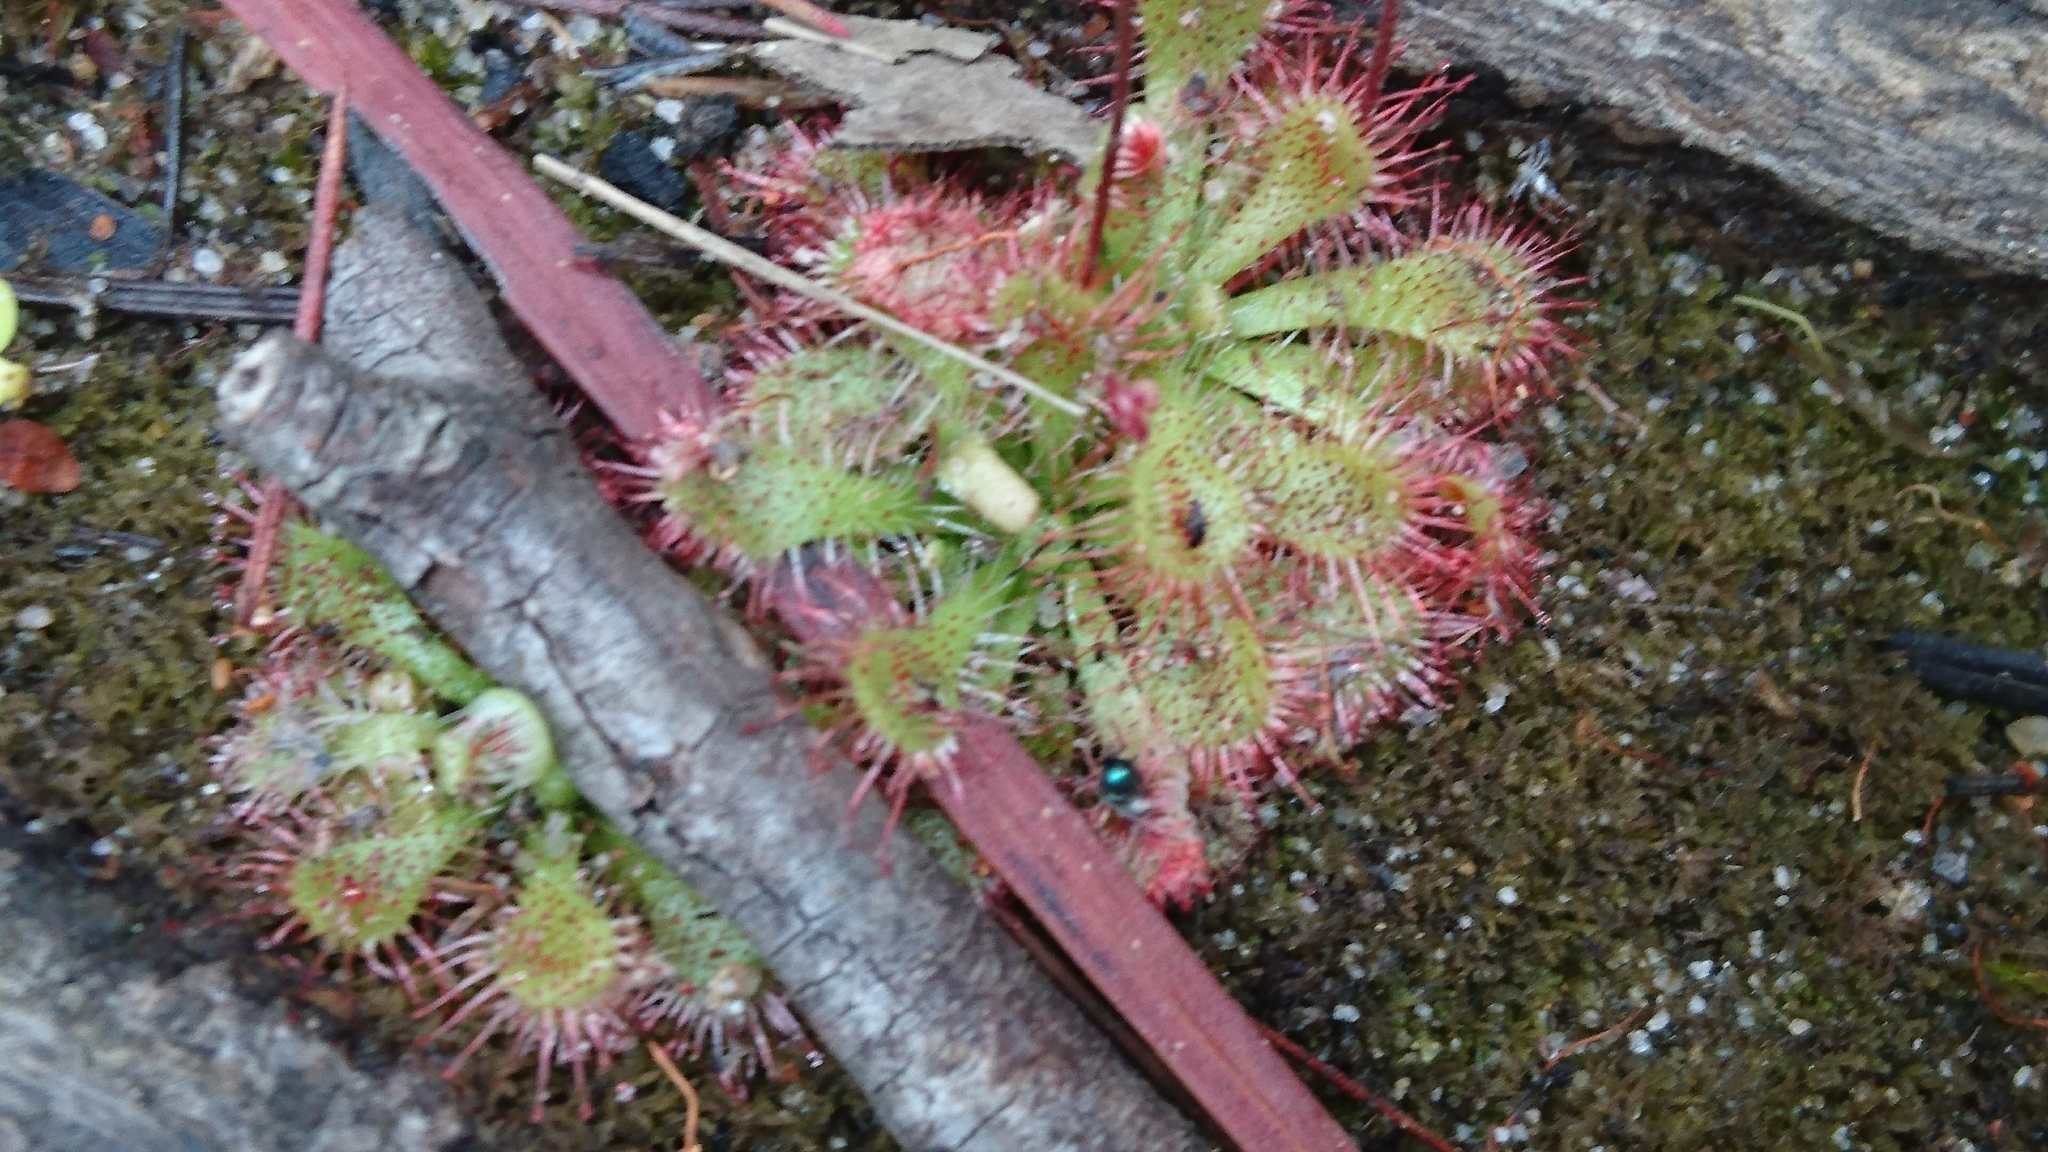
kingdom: Plantae
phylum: Tracheophyta
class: Magnoliopsida
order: Caryophyllales
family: Droseraceae
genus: Drosera
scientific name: Drosera spatulata
